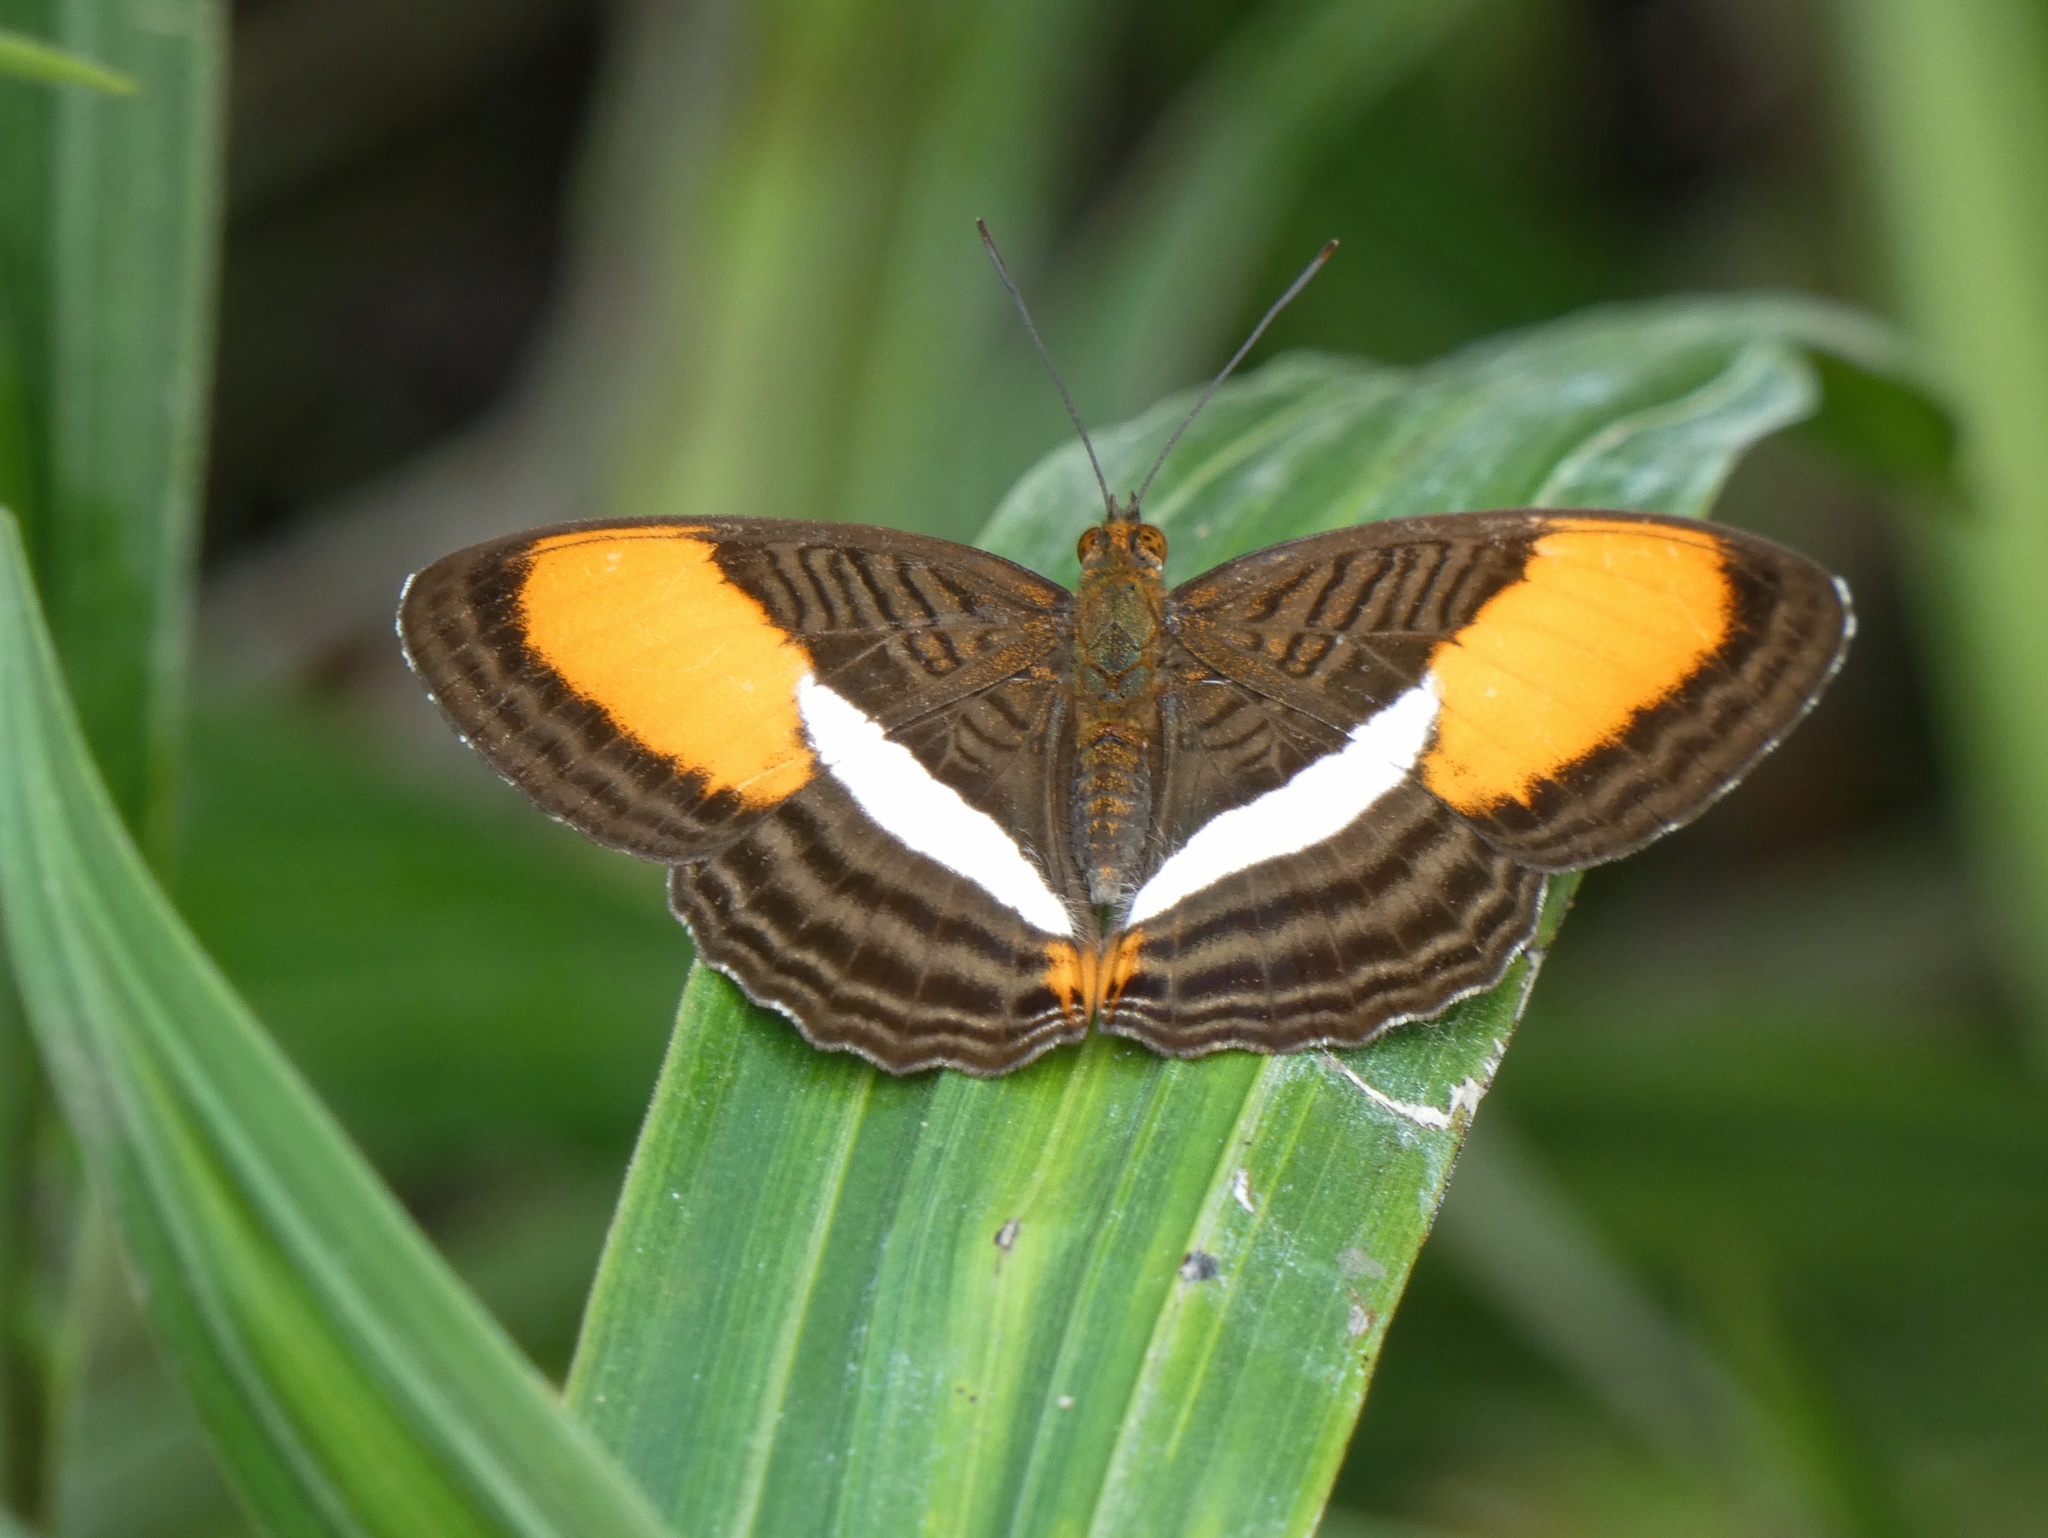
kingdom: Animalia
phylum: Arthropoda
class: Insecta
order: Lepidoptera
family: Nymphalidae
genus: Limenitis
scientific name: Limenitis cytherea
